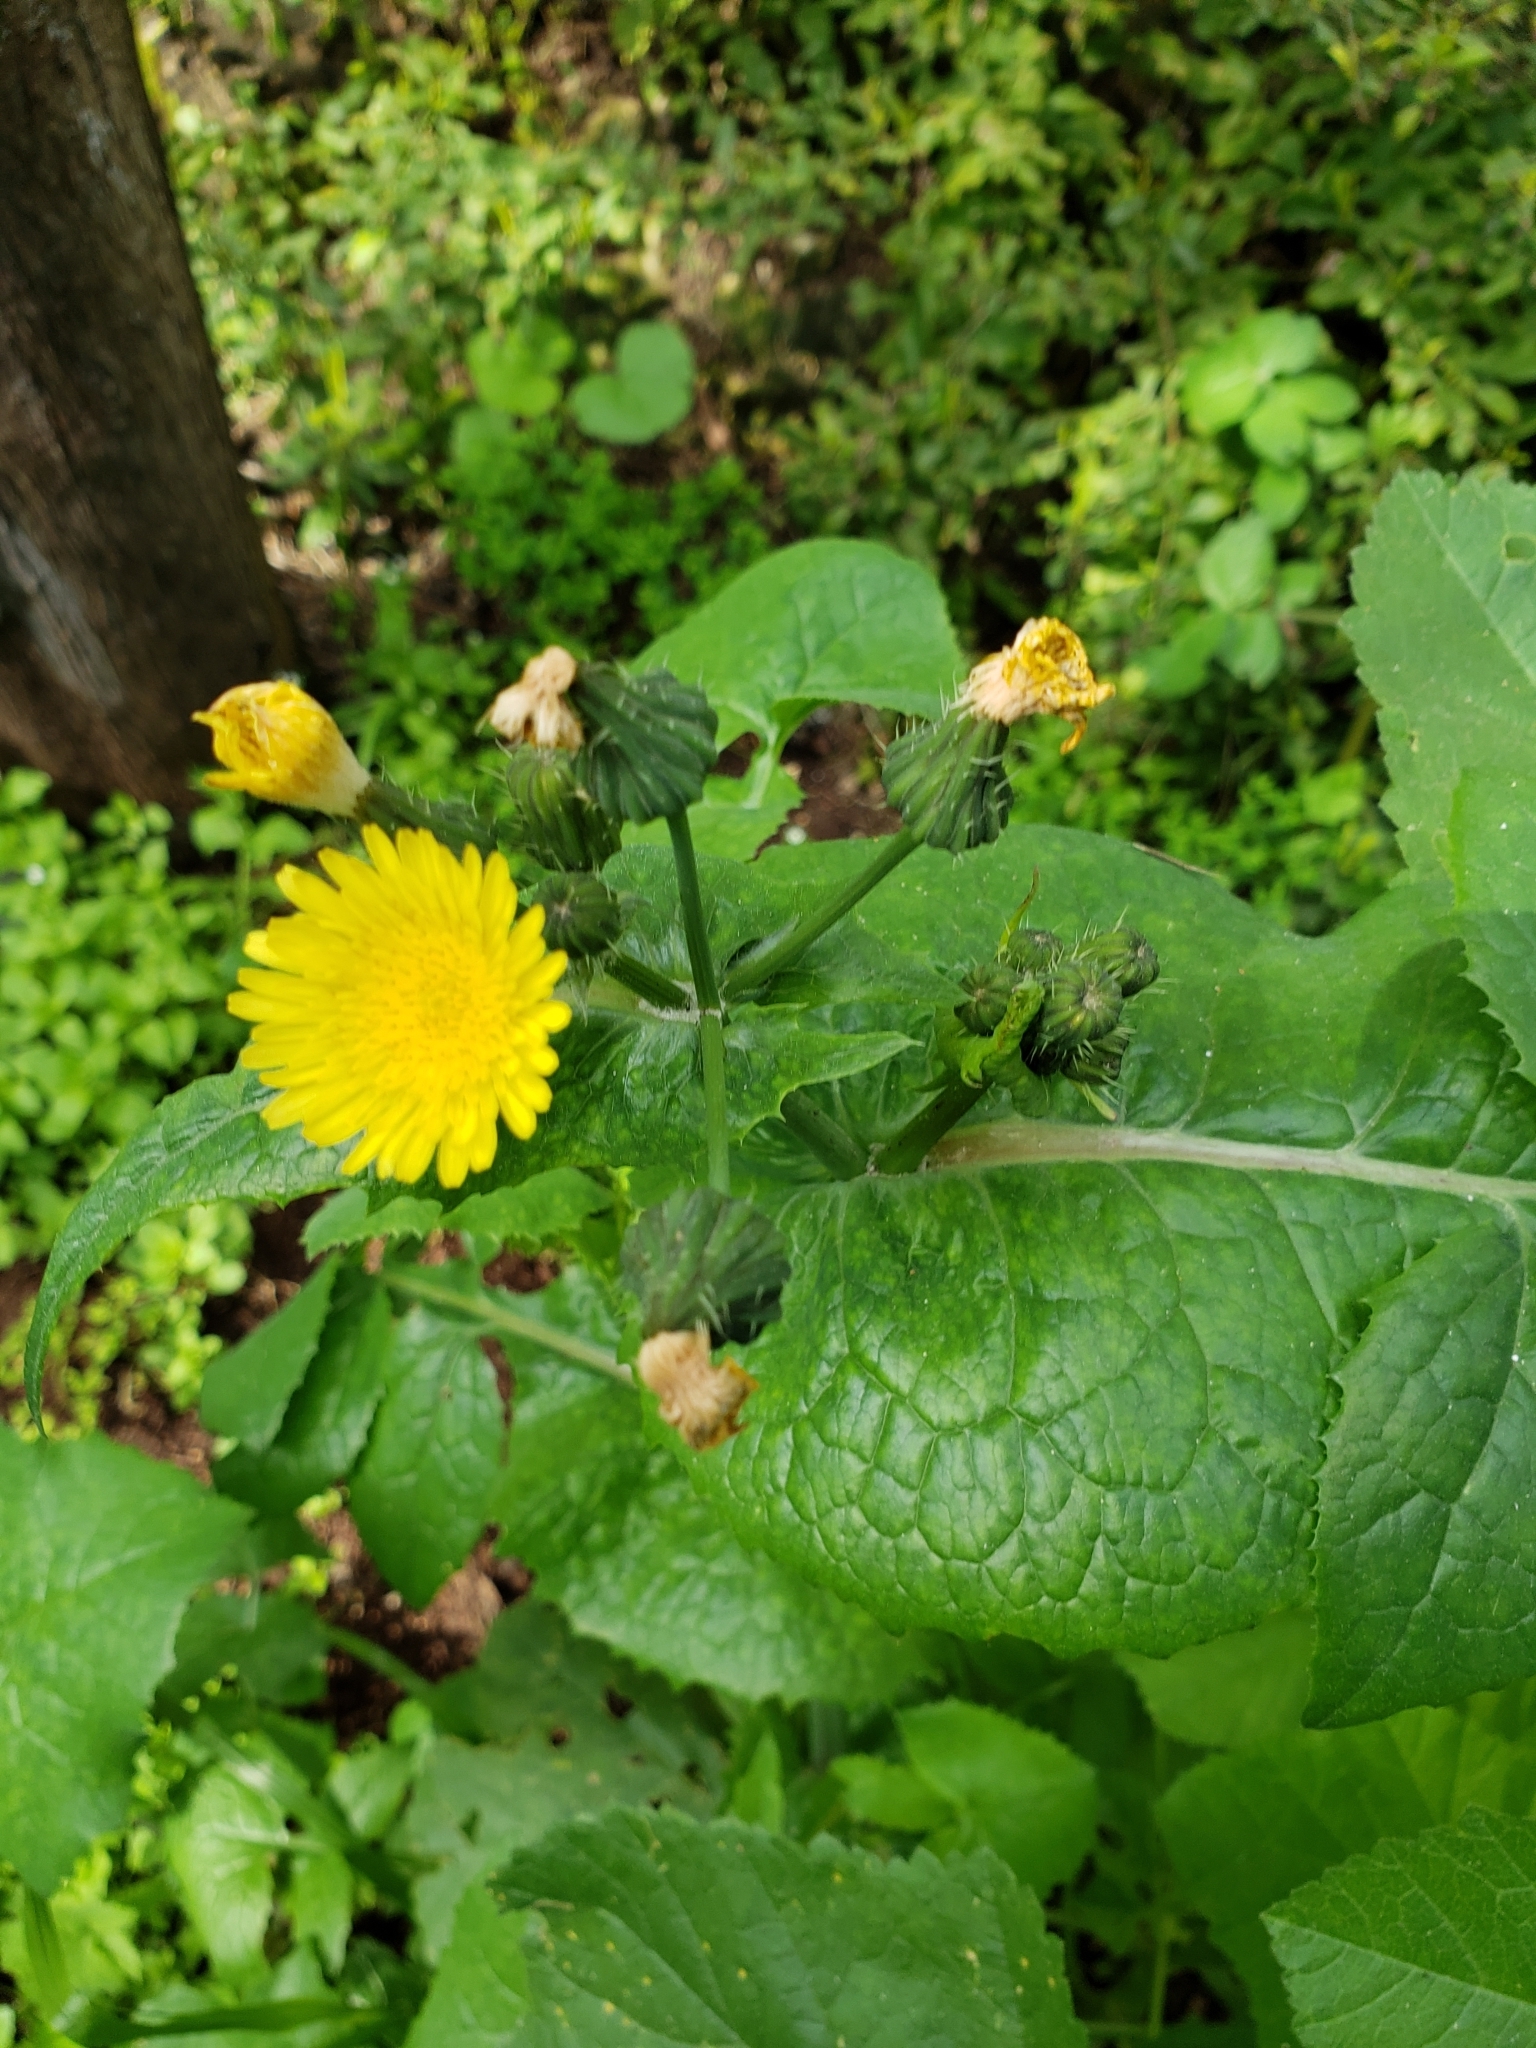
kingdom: Plantae
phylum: Tracheophyta
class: Magnoliopsida
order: Asterales
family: Asteraceae
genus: Sonchus
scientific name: Sonchus oleraceus
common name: Common sowthistle
